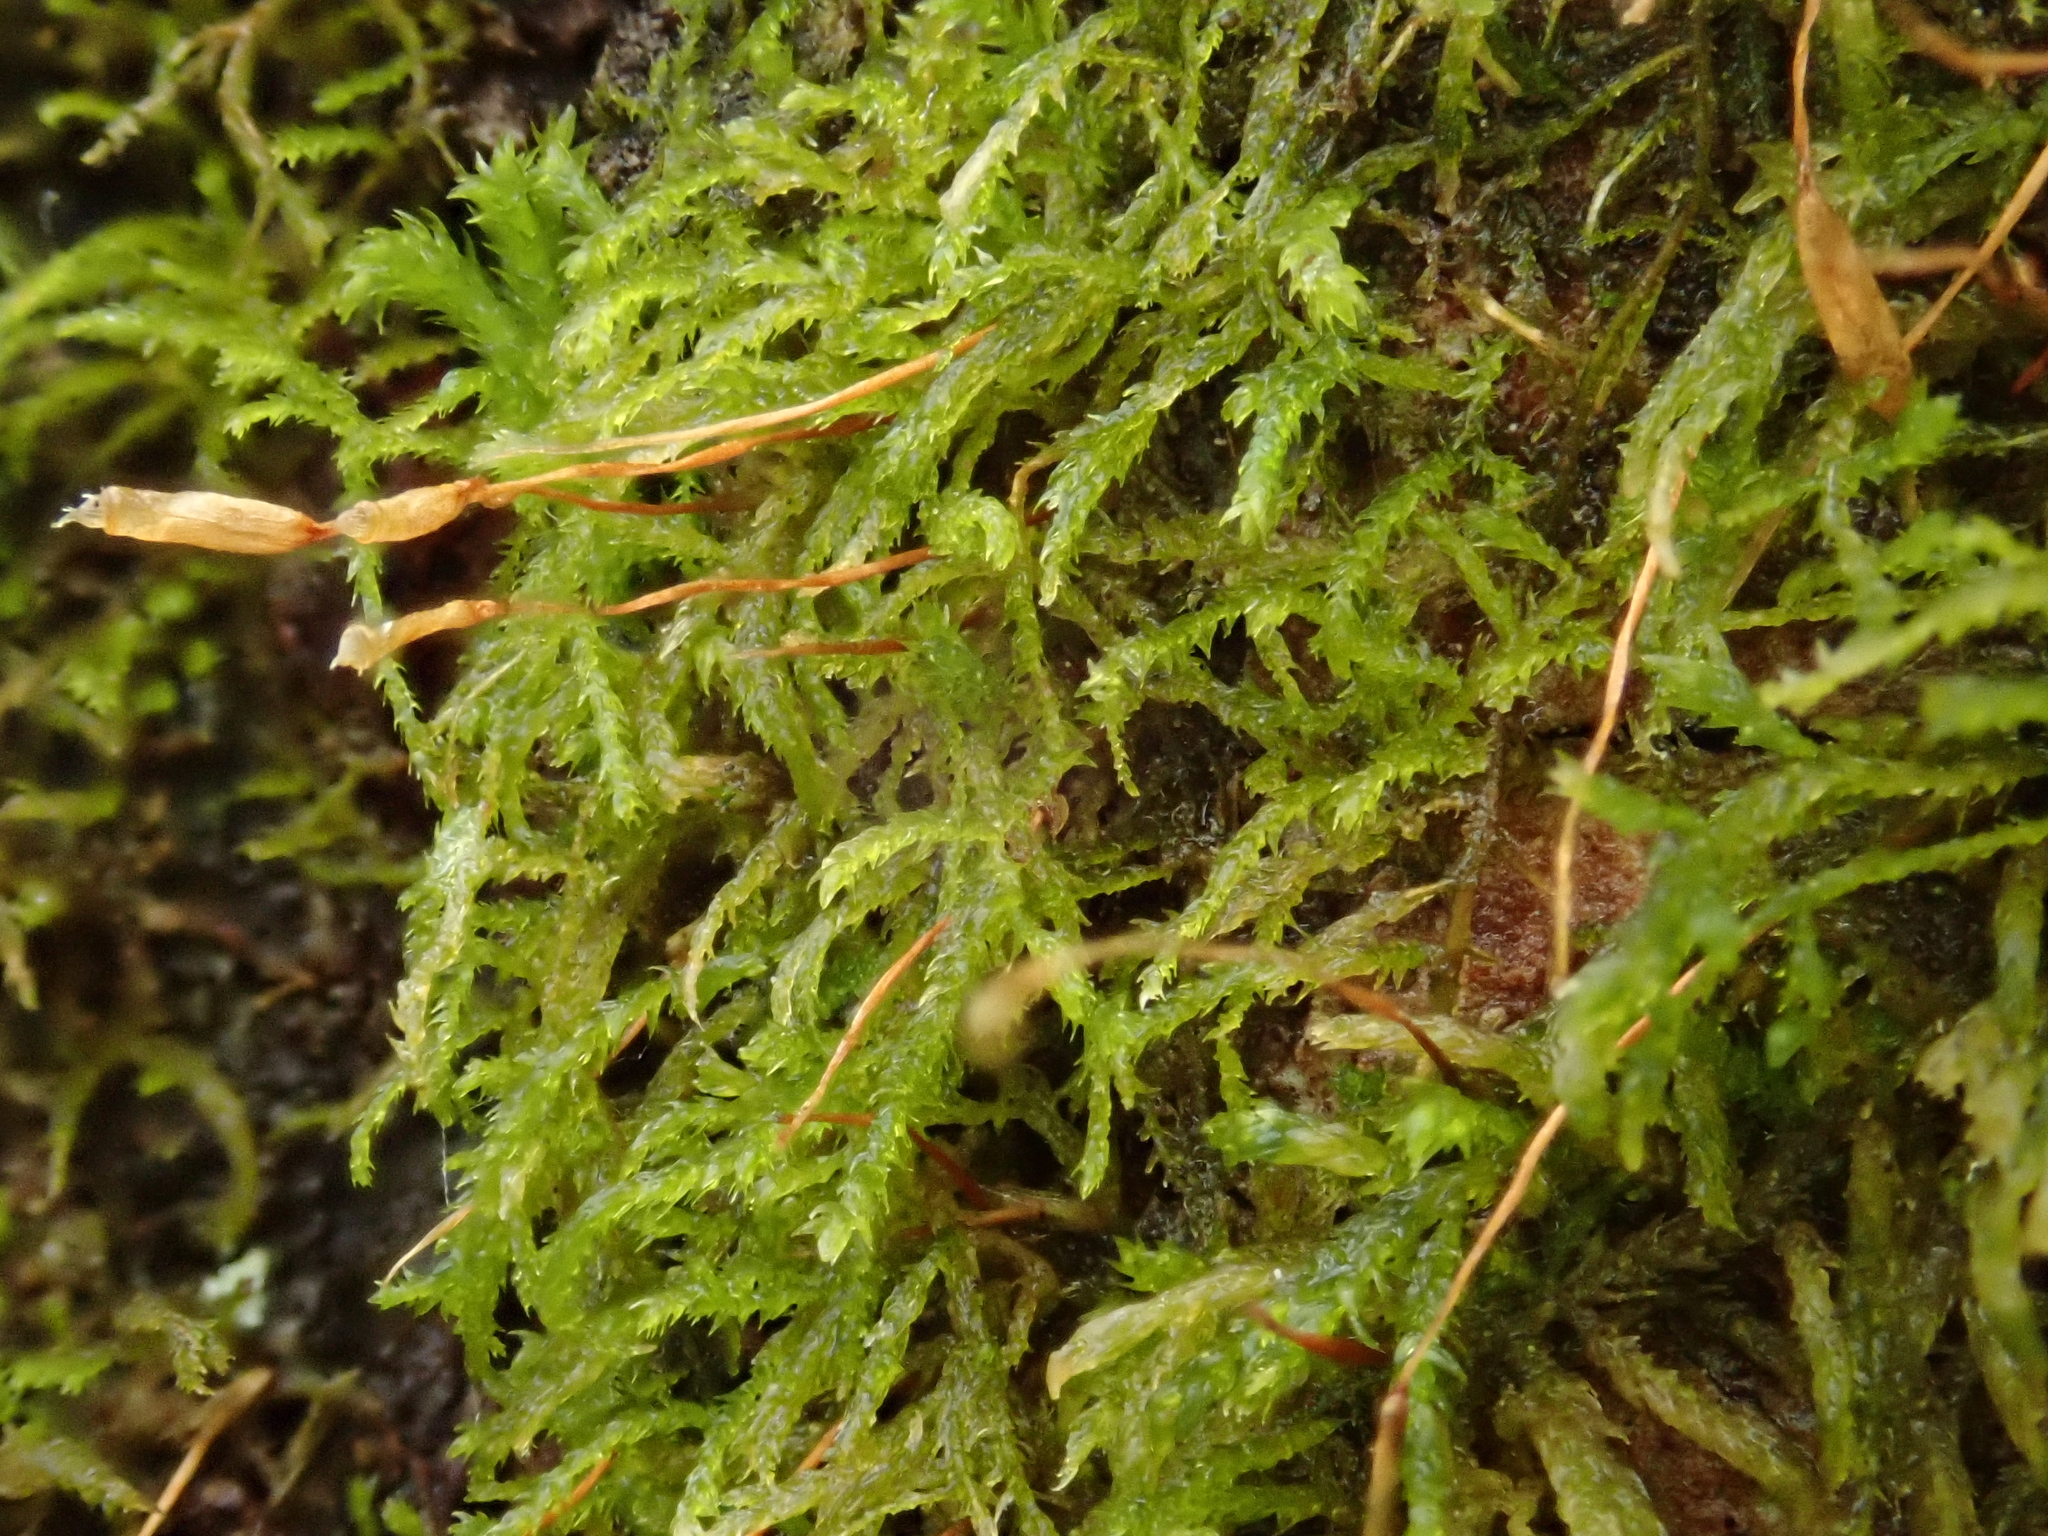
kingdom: Plantae
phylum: Bryophyta
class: Bryopsida
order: Hypnales
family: Leskeaceae
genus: Leskea
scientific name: Leskea polycarpa
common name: Many-fruited leske's moss
